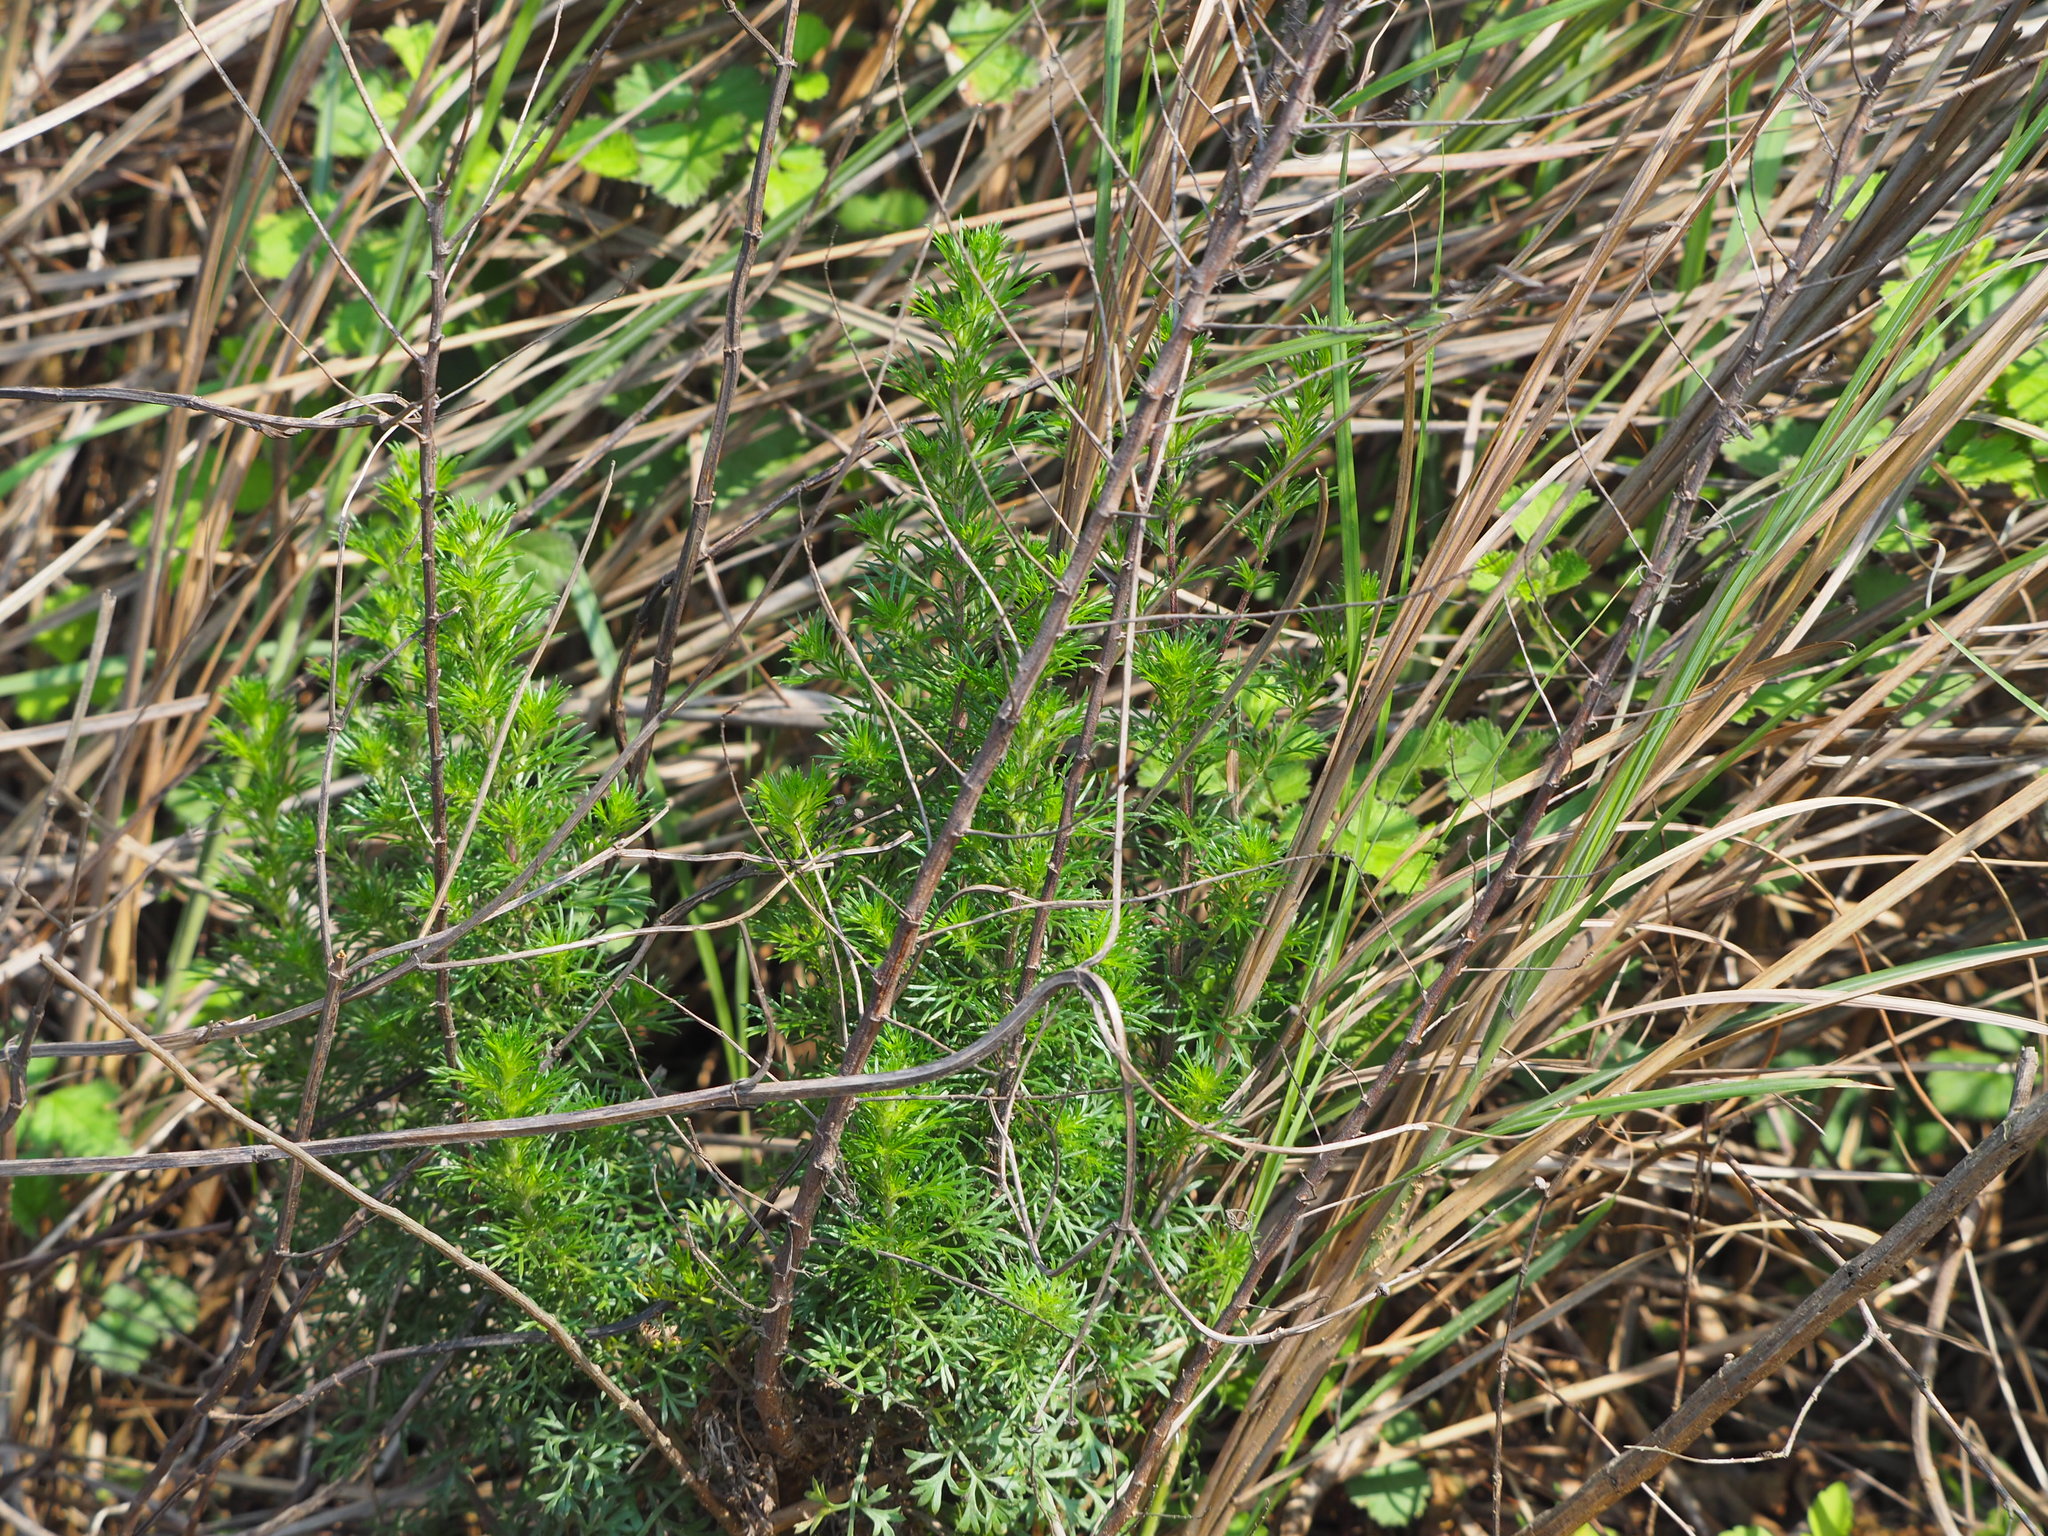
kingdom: Plantae
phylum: Tracheophyta
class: Magnoliopsida
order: Asterales
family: Asteraceae
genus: Artemisia
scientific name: Artemisia capillaris
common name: Yin-chen wormwood
